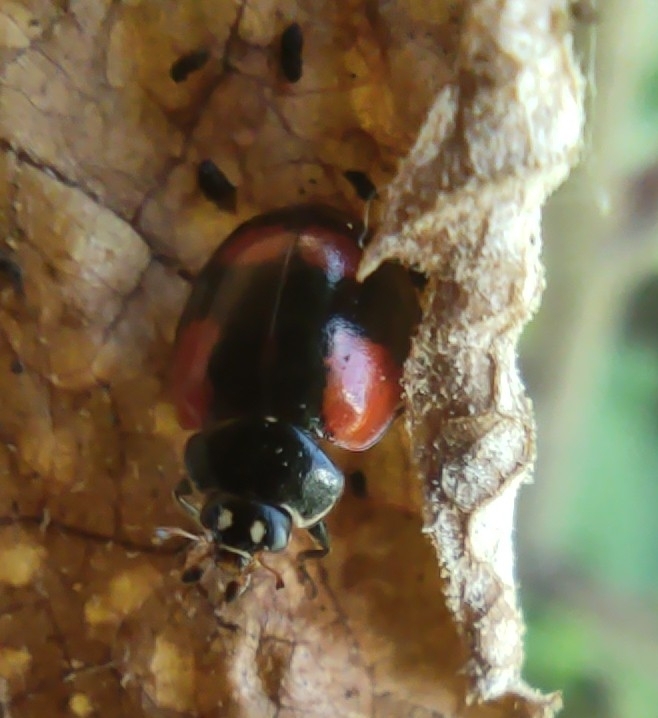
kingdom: Animalia
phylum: Arthropoda
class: Insecta
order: Coleoptera
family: Coccinellidae
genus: Adalia
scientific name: Adalia bipunctata
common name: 2-spot ladybird
